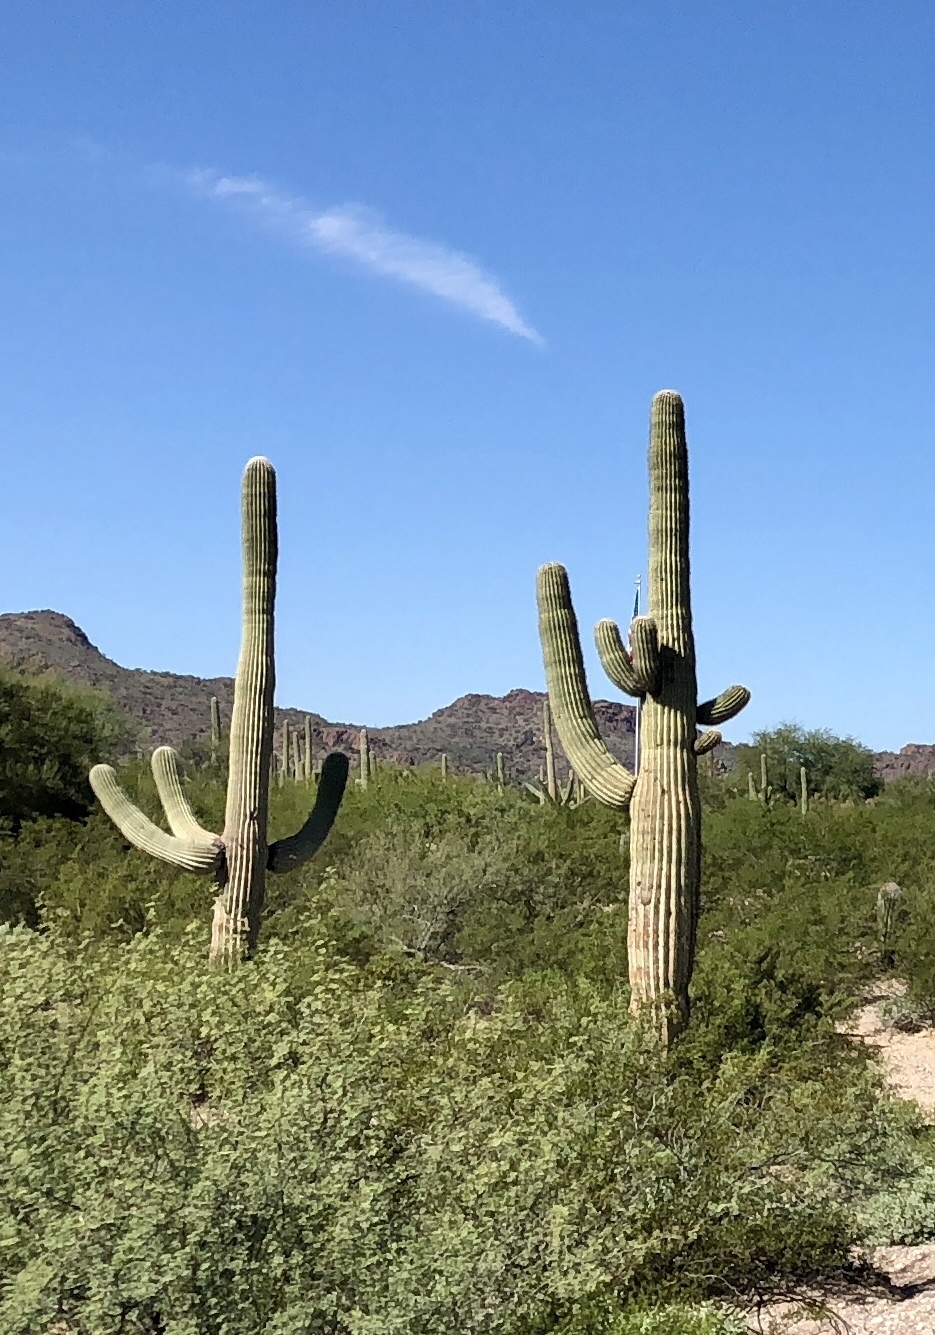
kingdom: Plantae
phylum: Tracheophyta
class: Magnoliopsida
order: Caryophyllales
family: Cactaceae
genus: Carnegiea
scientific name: Carnegiea gigantea
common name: Saguaro
